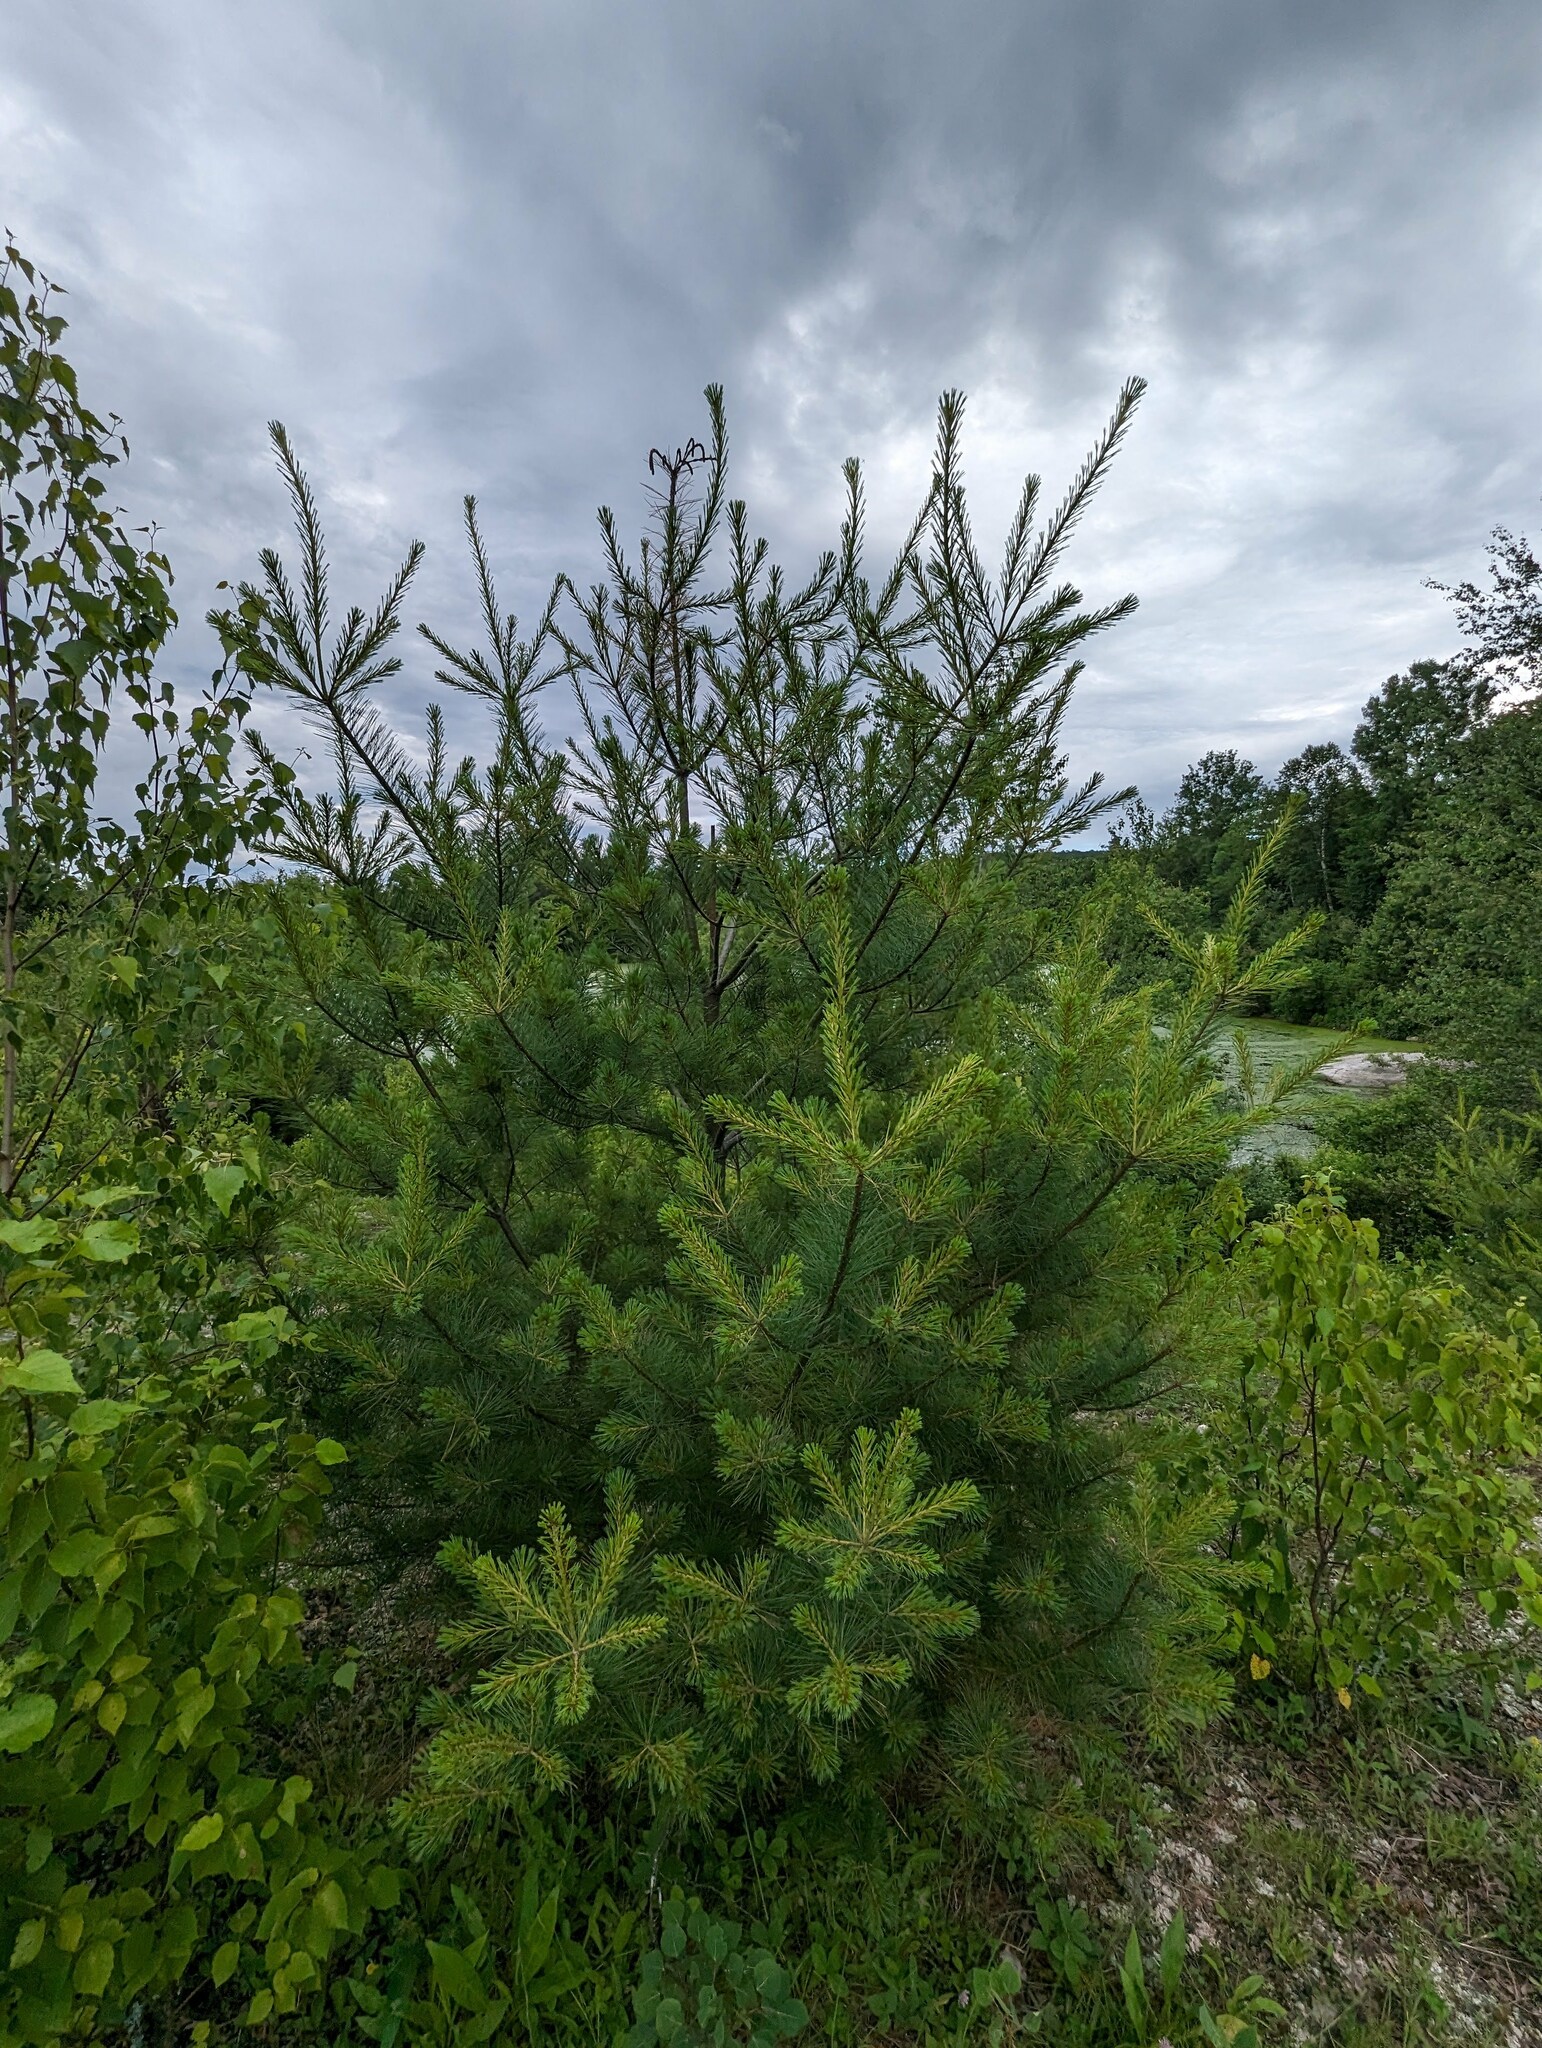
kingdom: Plantae
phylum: Tracheophyta
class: Pinopsida
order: Pinales
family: Pinaceae
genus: Pinus
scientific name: Pinus strobus
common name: Weymouth pine
